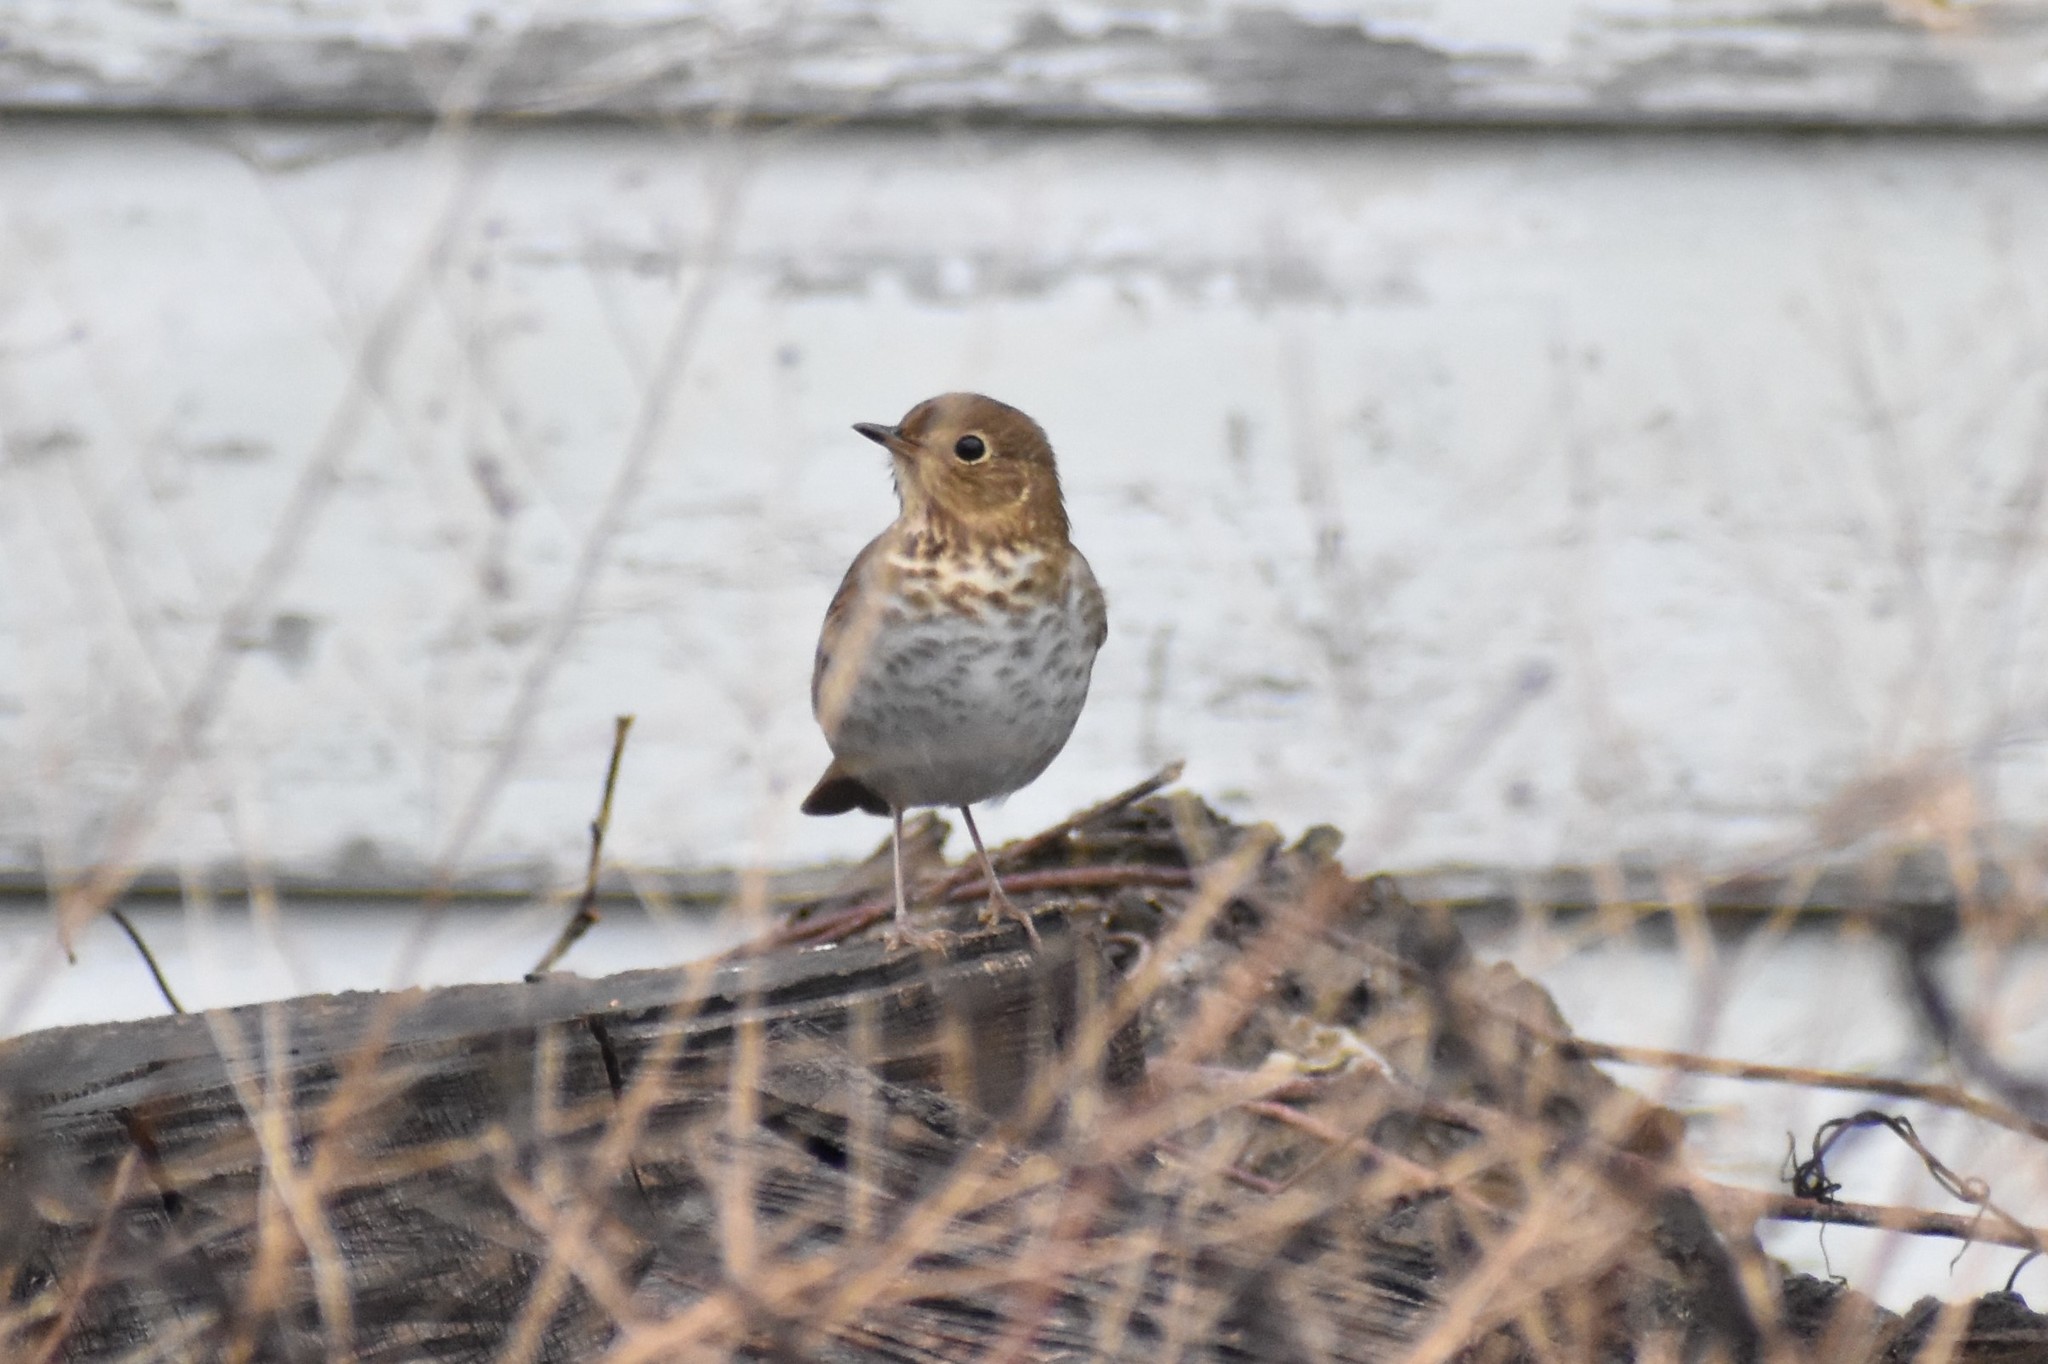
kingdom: Animalia
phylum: Chordata
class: Aves
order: Passeriformes
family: Turdidae
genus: Catharus
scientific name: Catharus ustulatus
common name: Swainson's thrush
